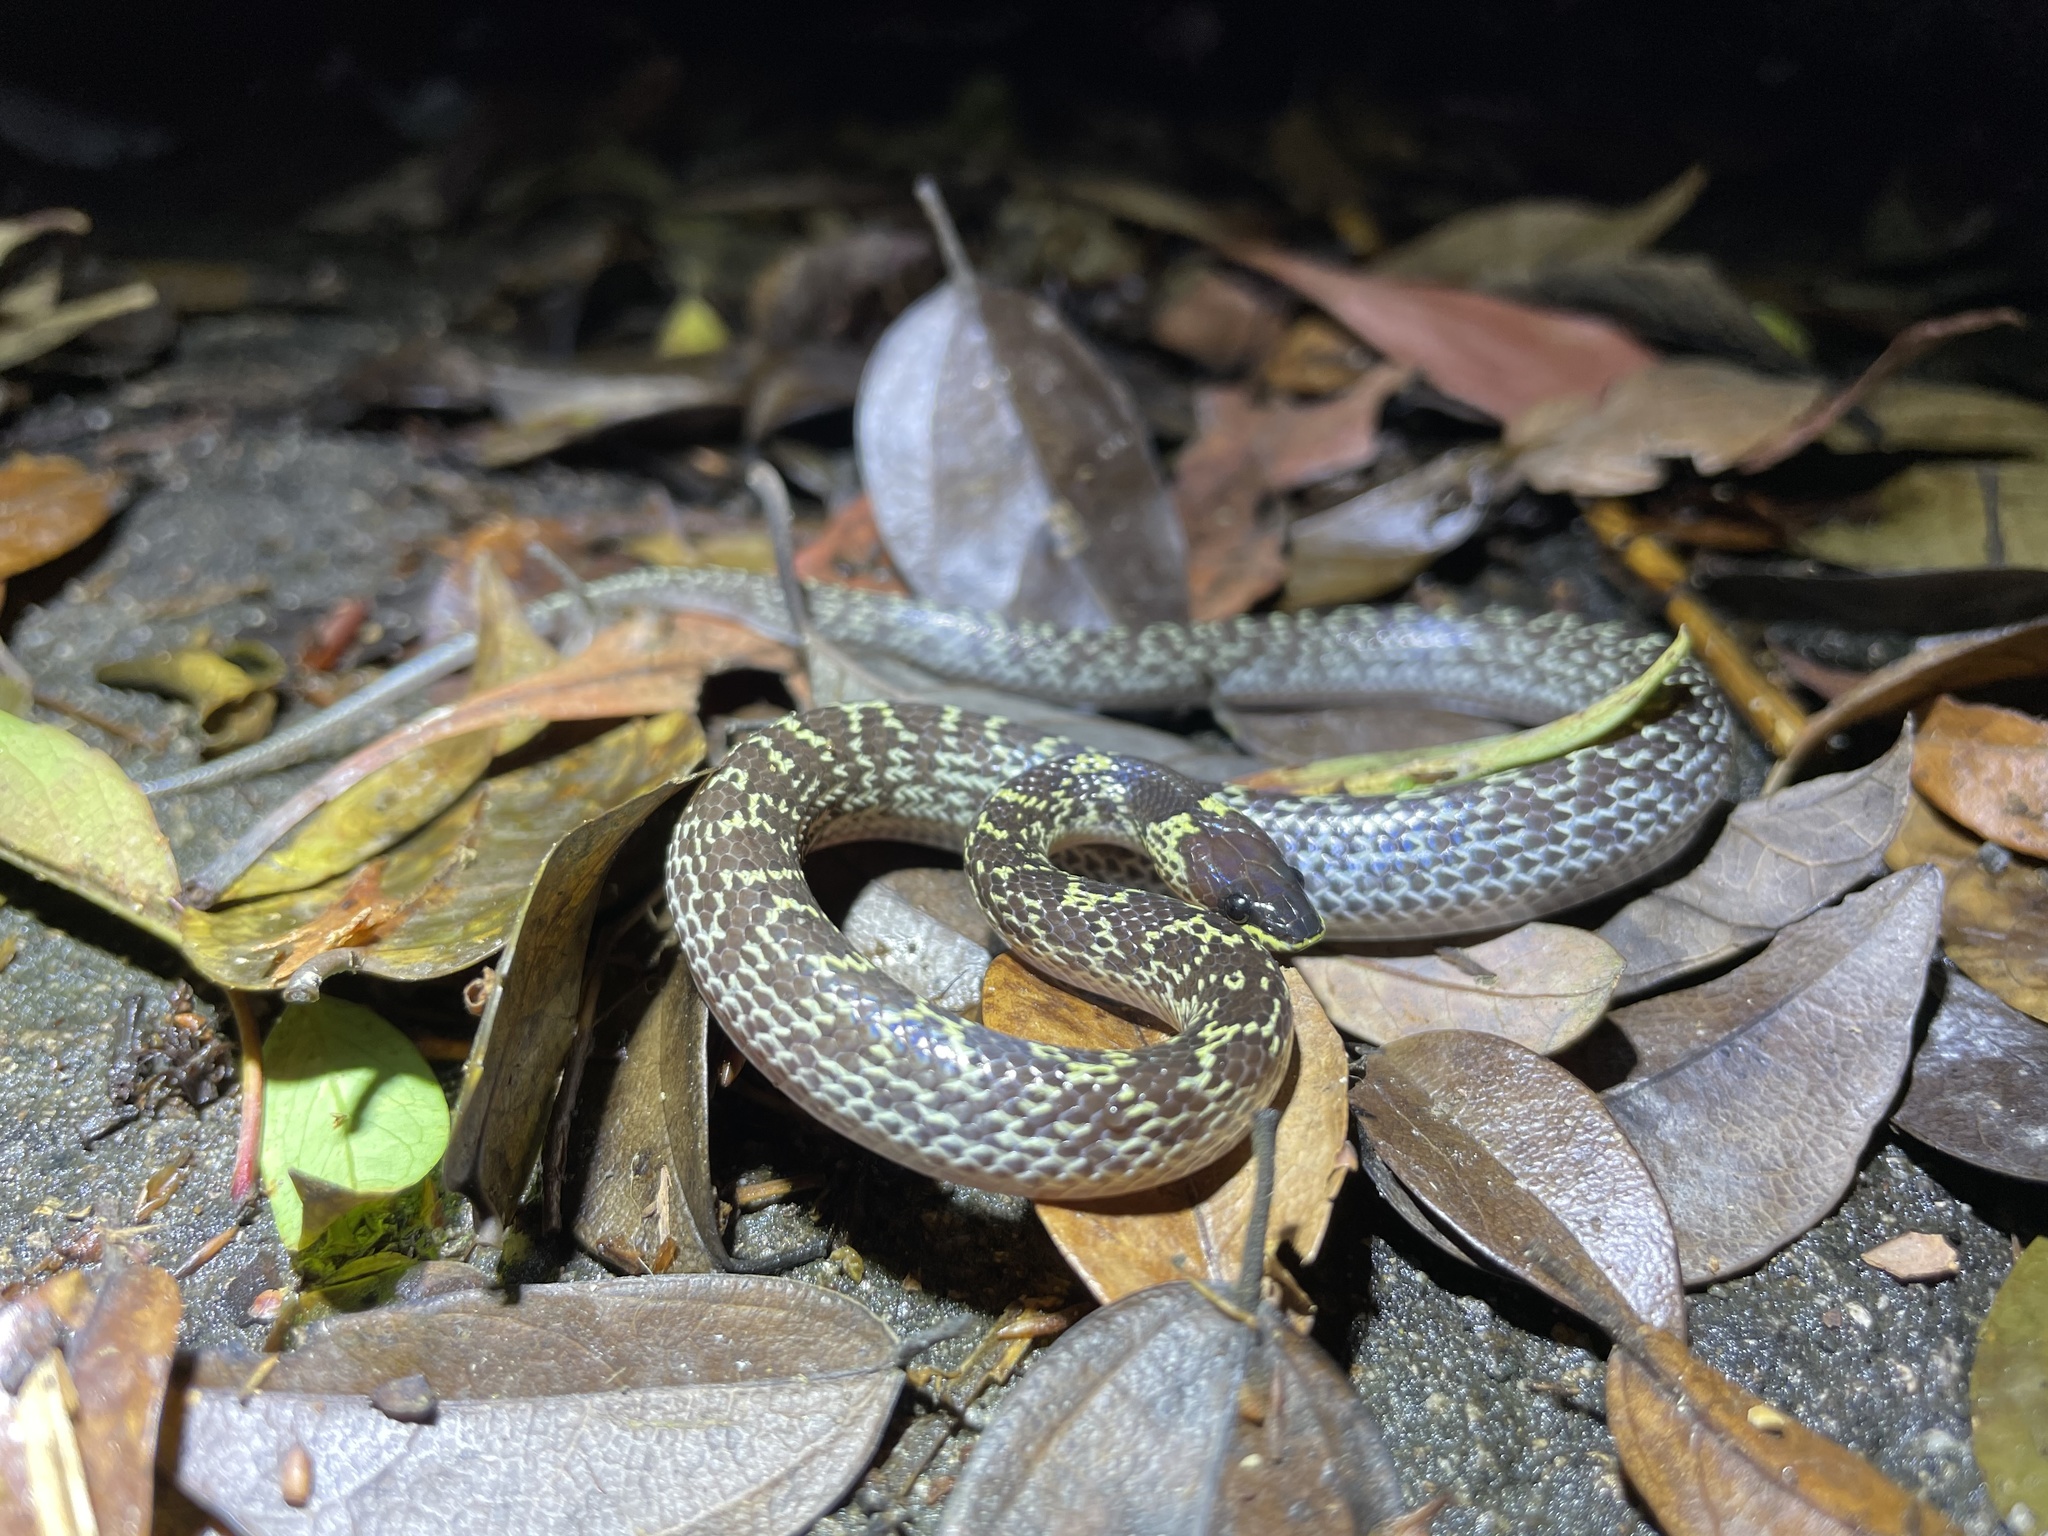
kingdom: Animalia
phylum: Chordata
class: Squamata
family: Colubridae
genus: Lycodon
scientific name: Lycodon capucinus
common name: Common wold snake/house snake
